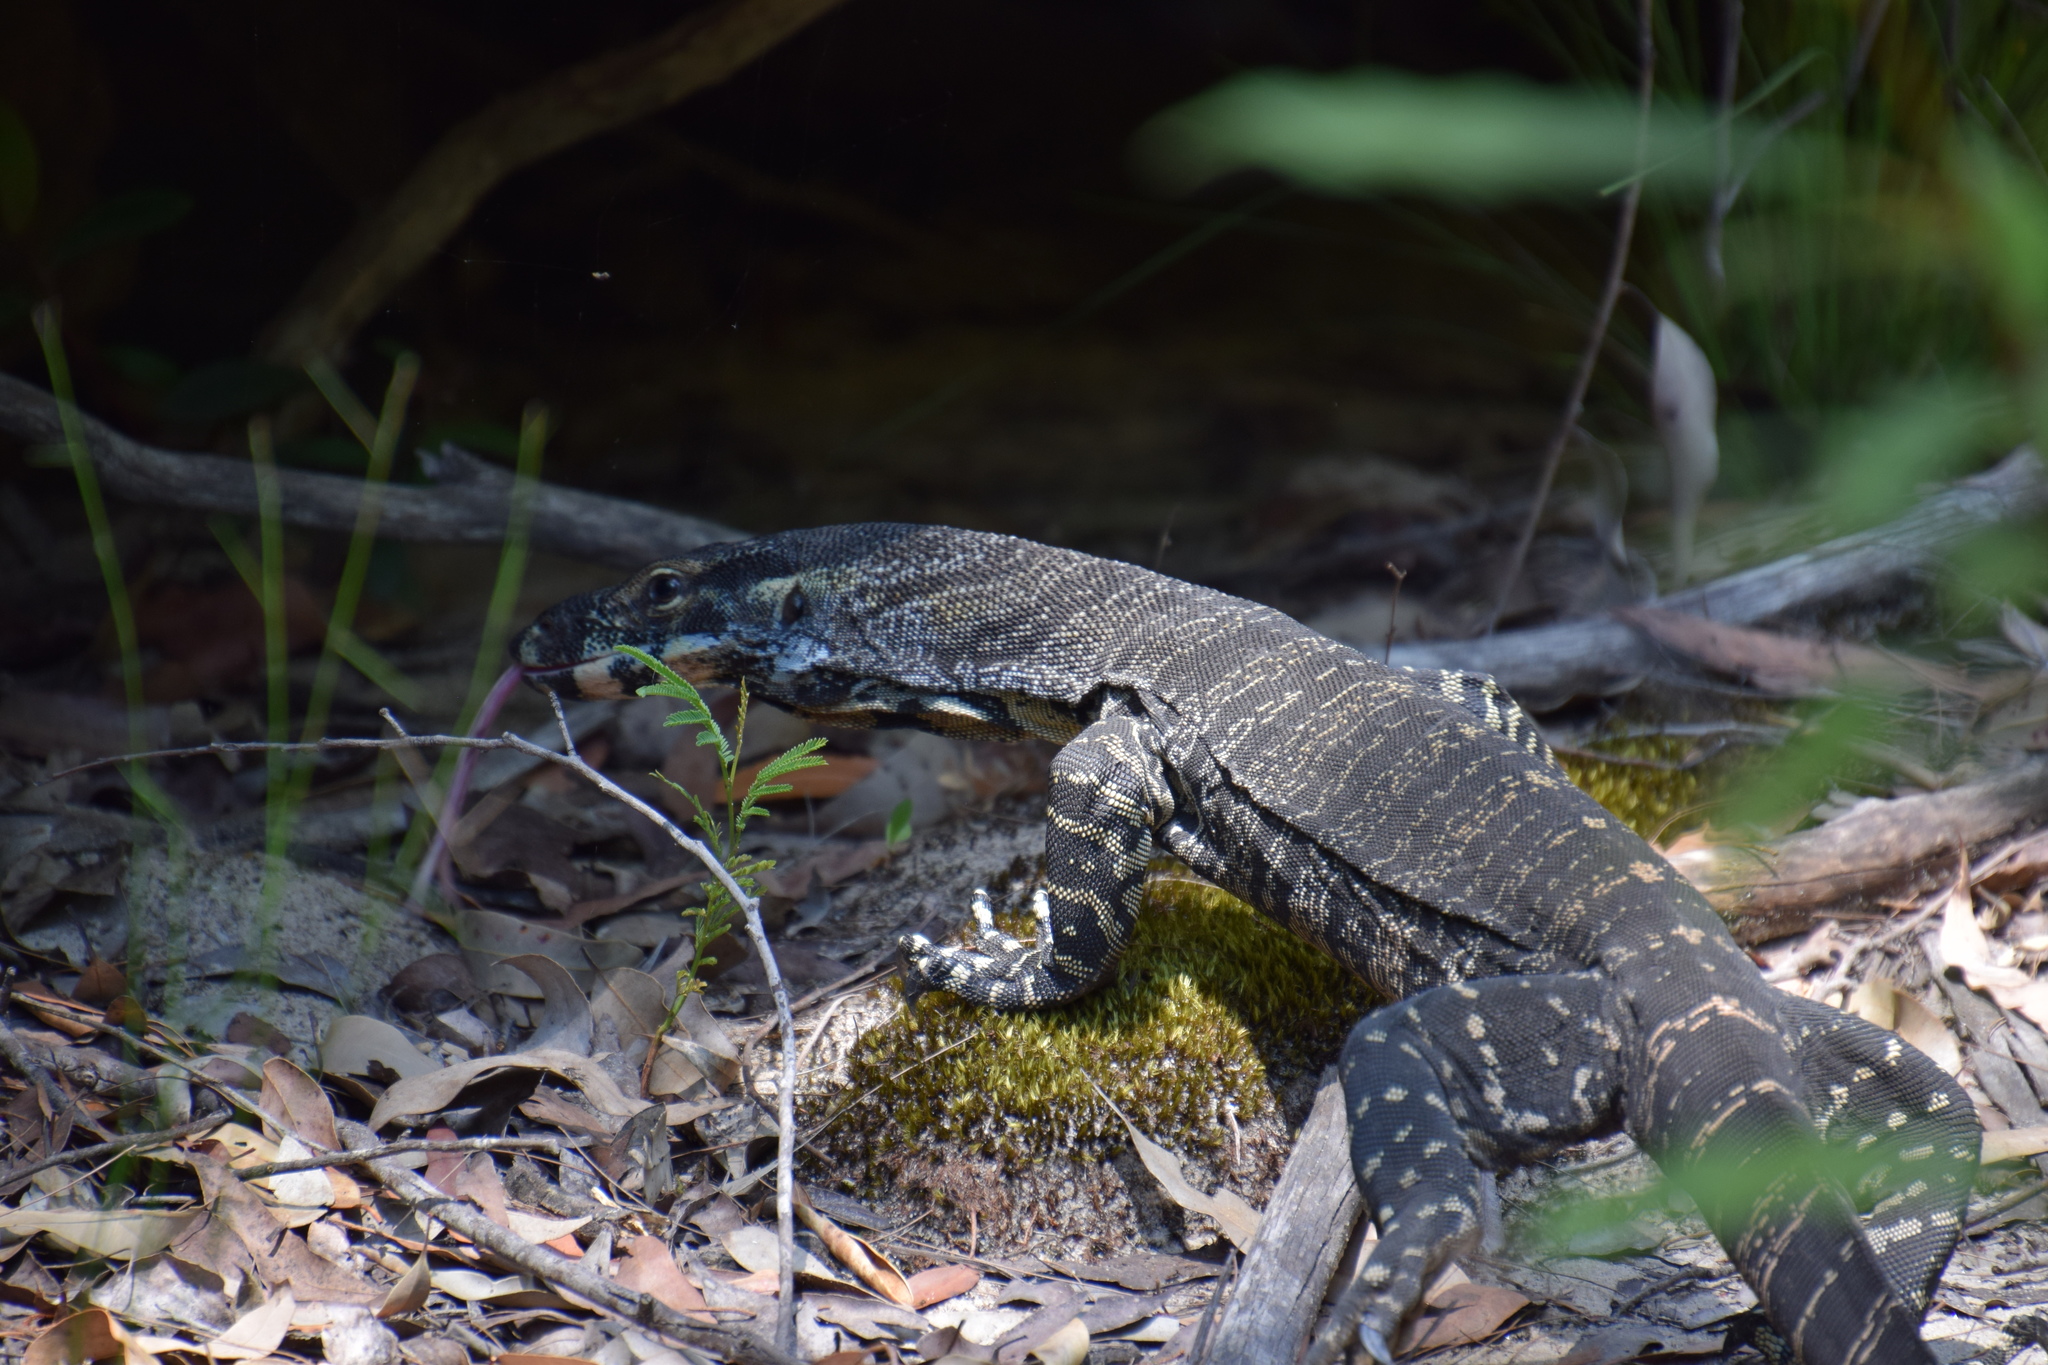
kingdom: Animalia
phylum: Chordata
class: Squamata
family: Varanidae
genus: Varanus
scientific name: Varanus varius
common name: Lace monitor
